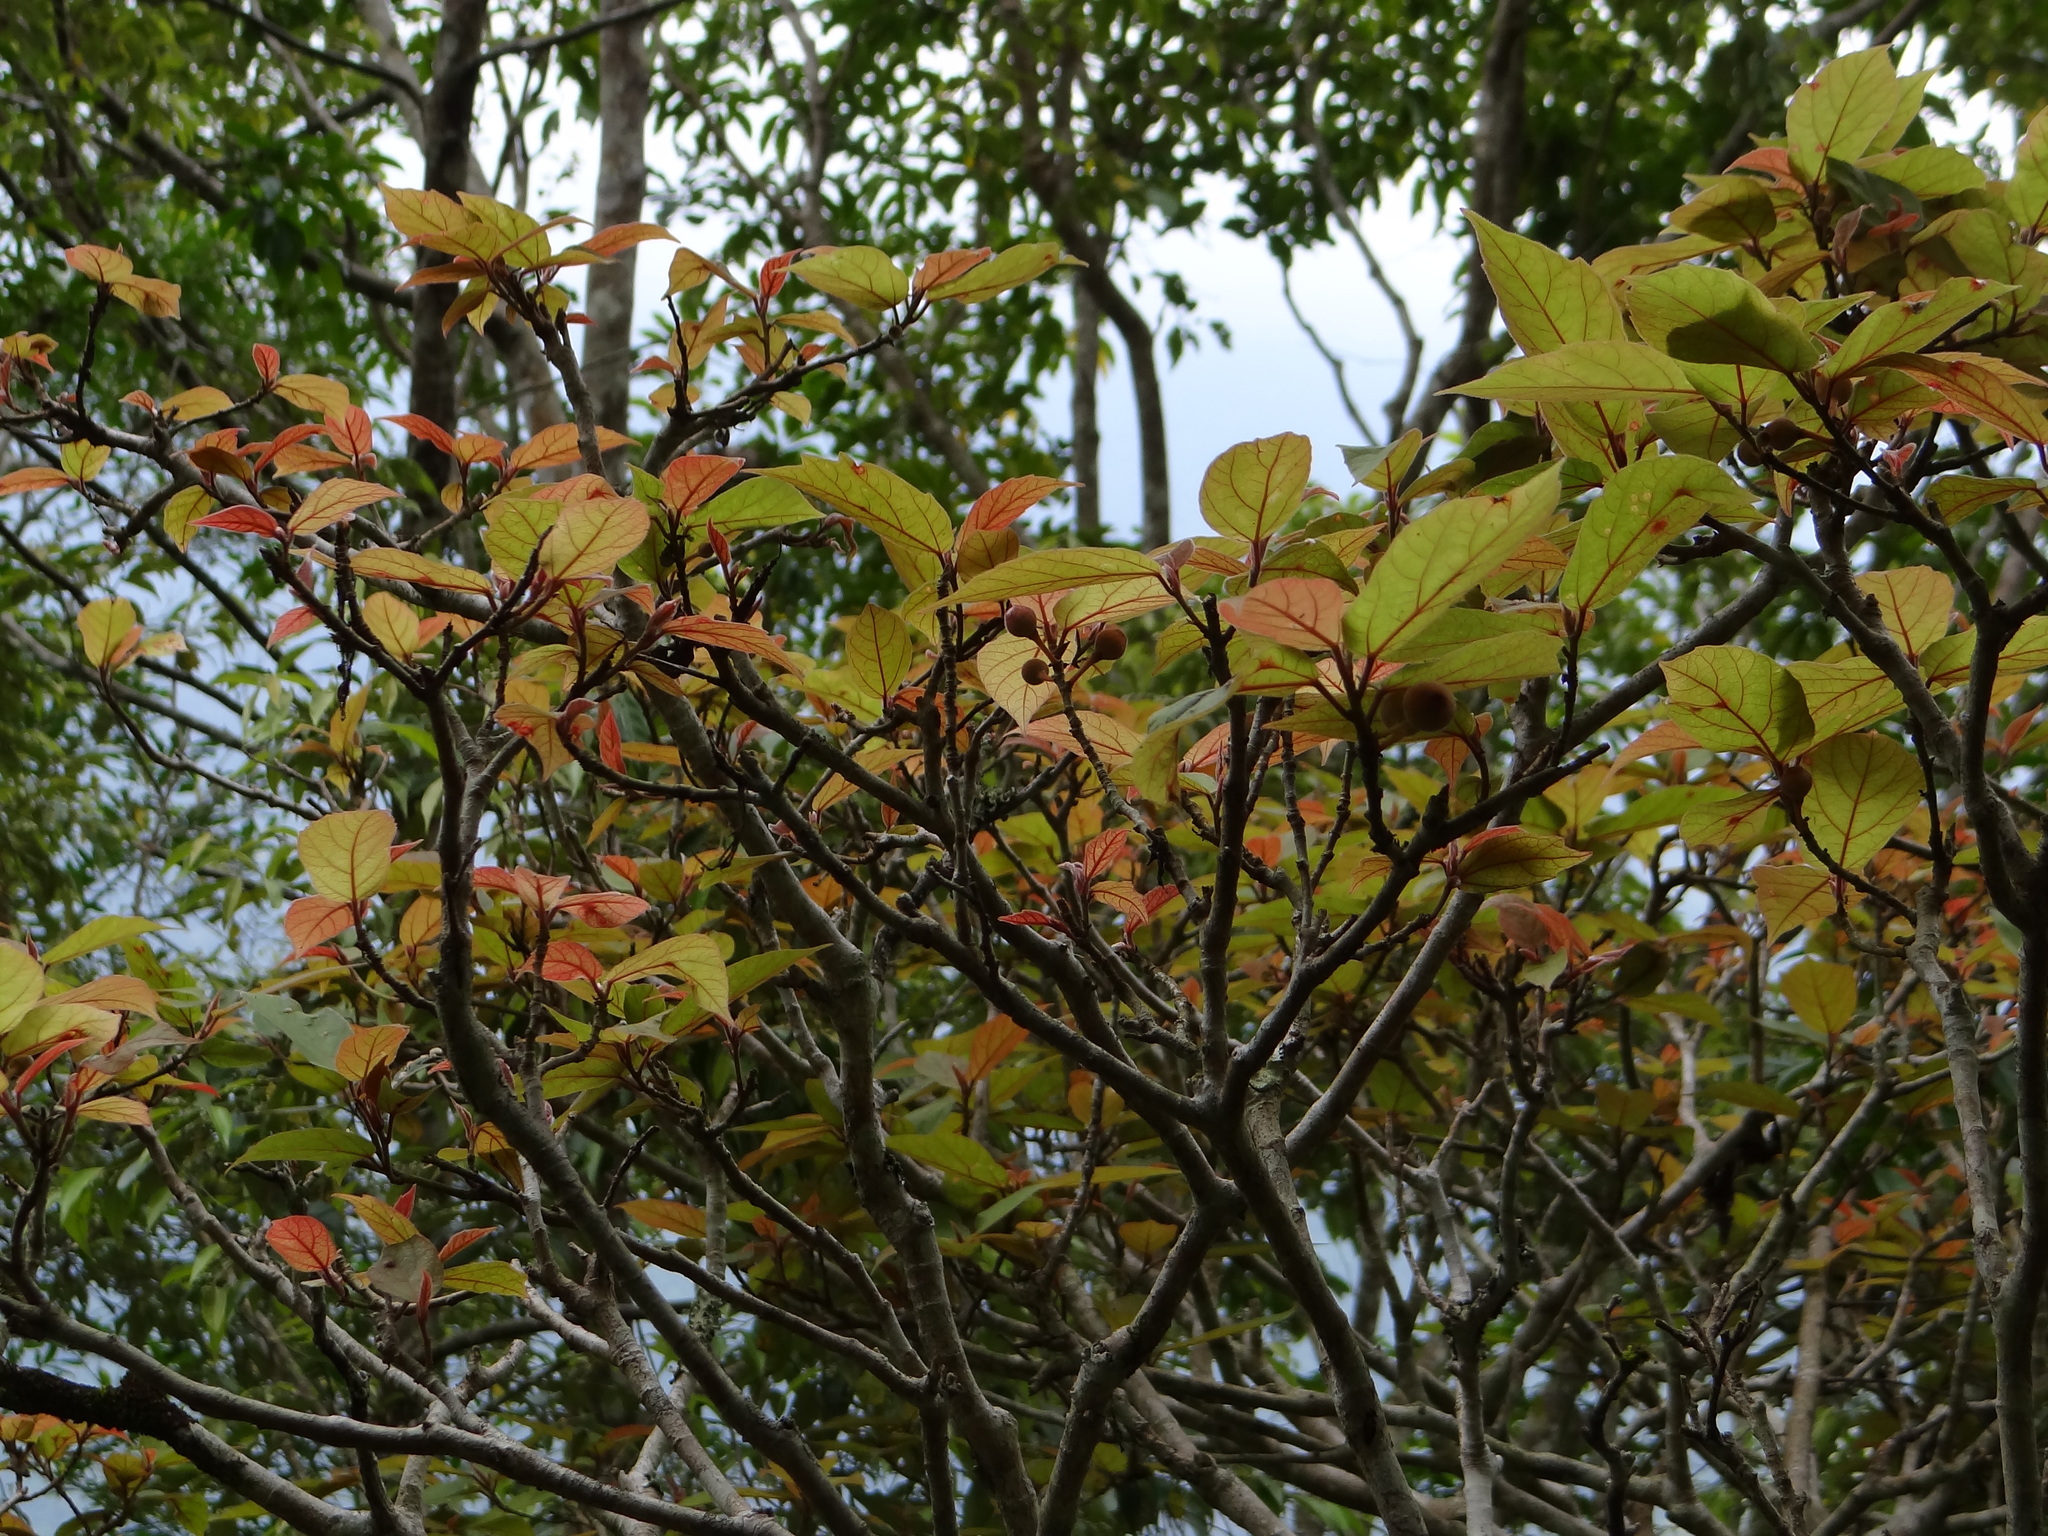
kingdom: Plantae
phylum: Tracheophyta
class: Magnoliopsida
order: Rosales
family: Moraceae
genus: Ficus
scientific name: Ficus erecta
